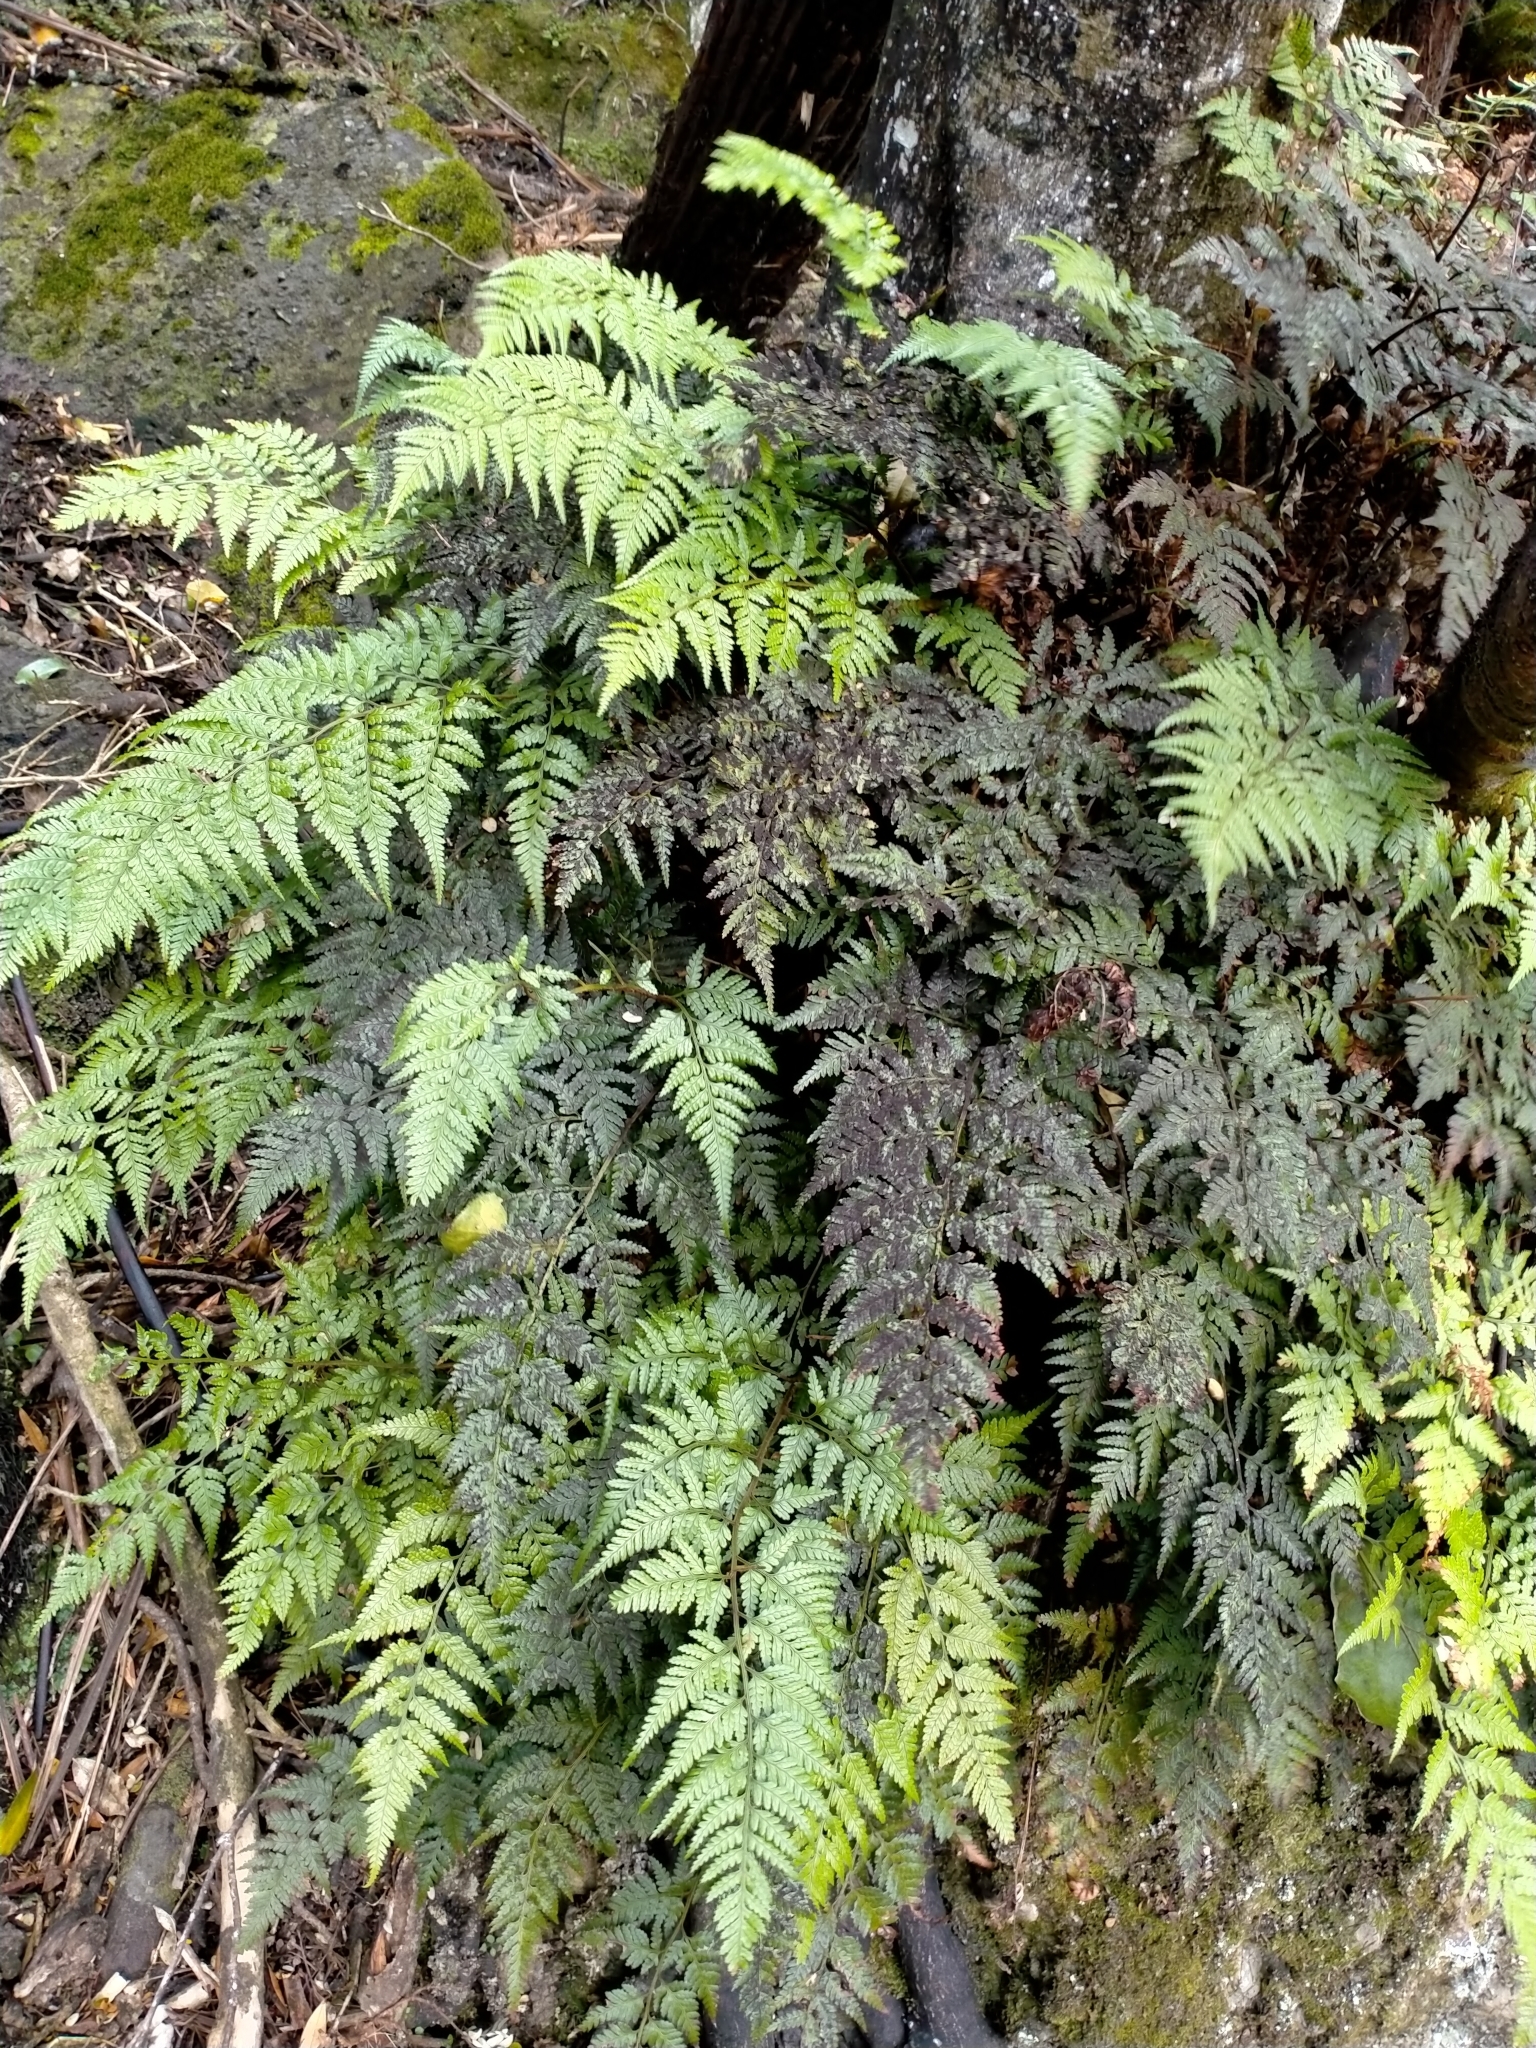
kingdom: Plantae
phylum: Tracheophyta
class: Polypodiopsida
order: Polypodiales
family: Dryopteridaceae
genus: Rumohra
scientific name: Rumohra adiantiformis
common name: Leather fern
